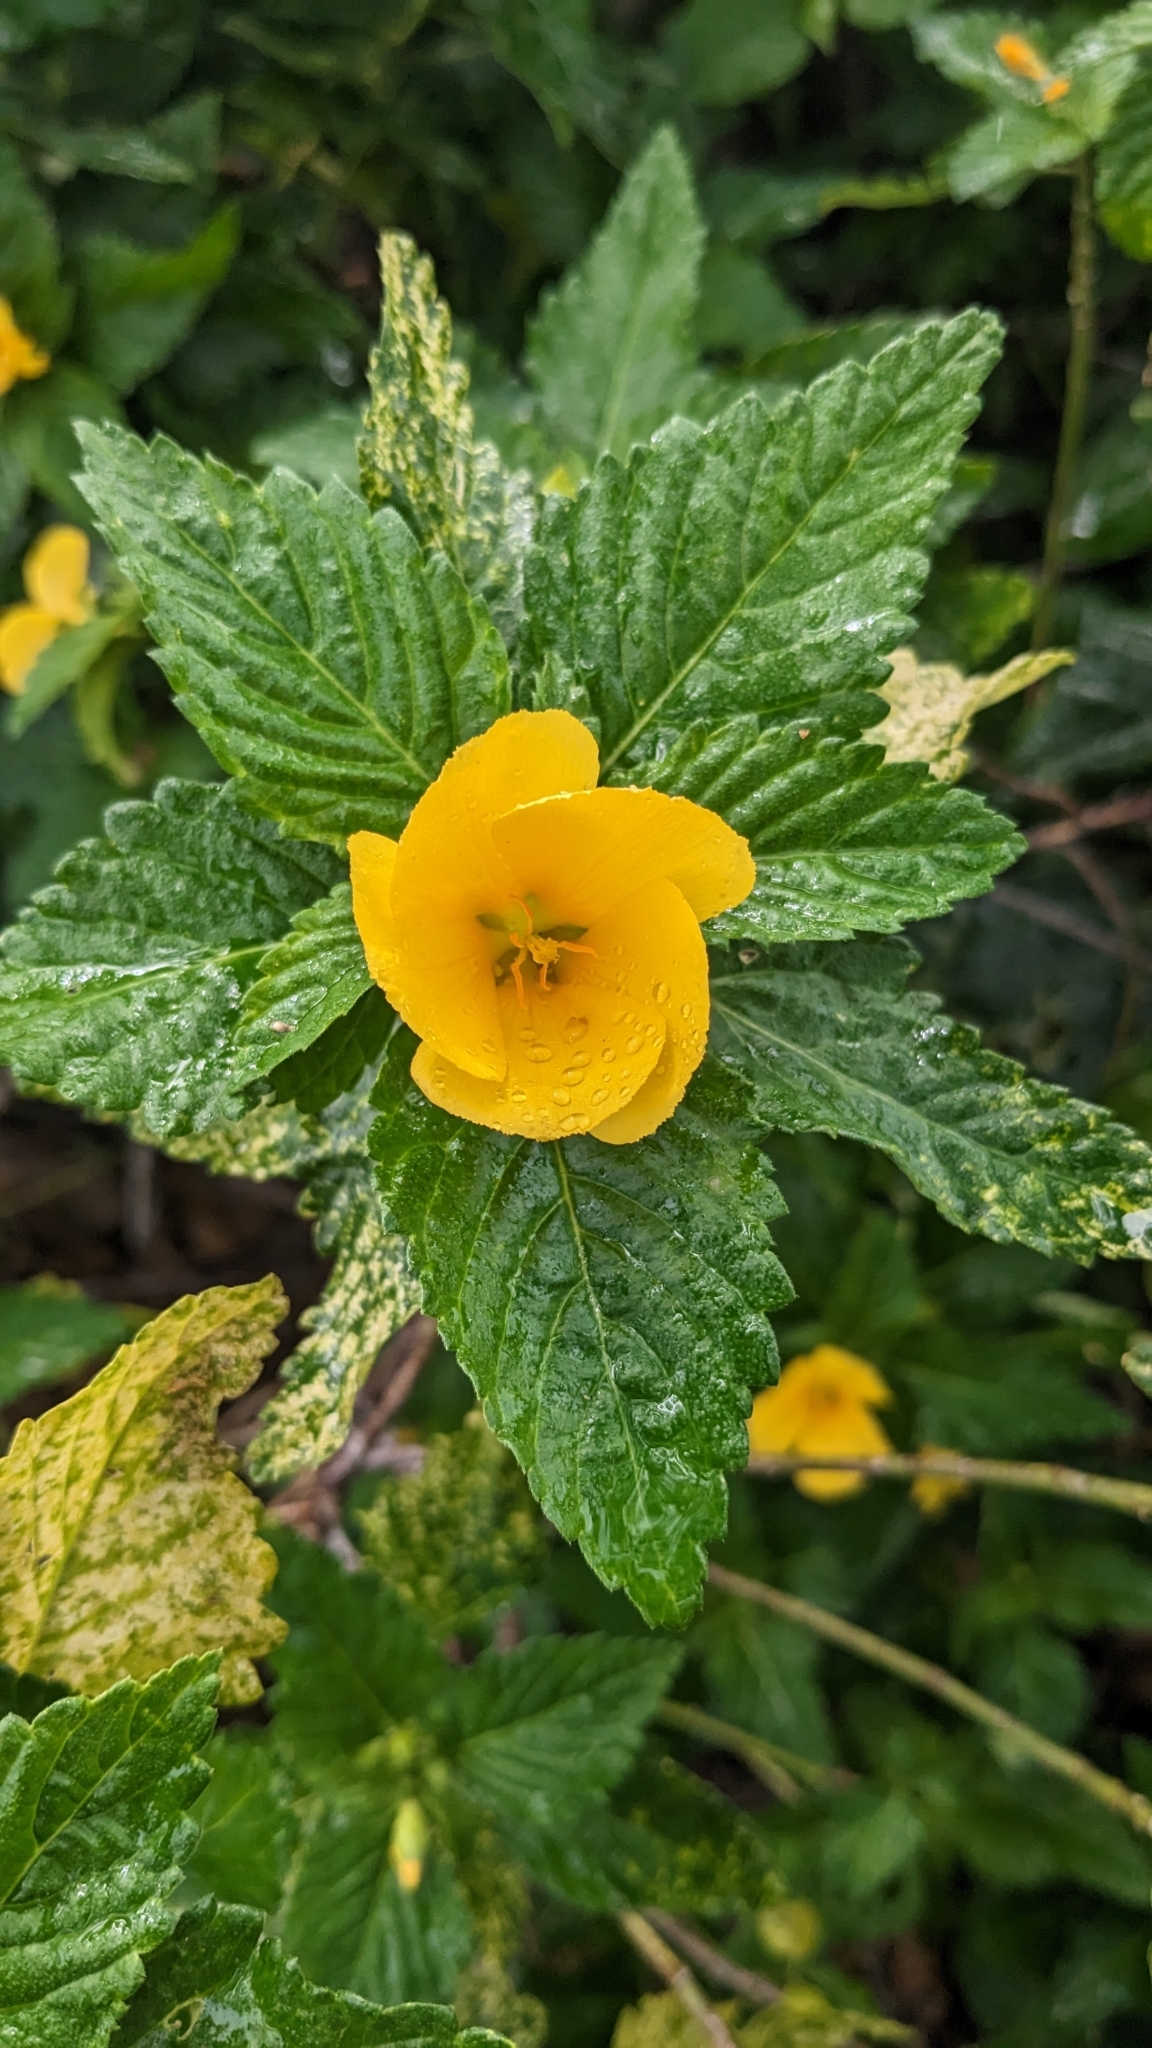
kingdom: Plantae
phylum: Tracheophyta
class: Magnoliopsida
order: Malpighiales
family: Turneraceae
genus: Turnera
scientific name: Turnera ulmifolia
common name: Ramgoat dashalong
